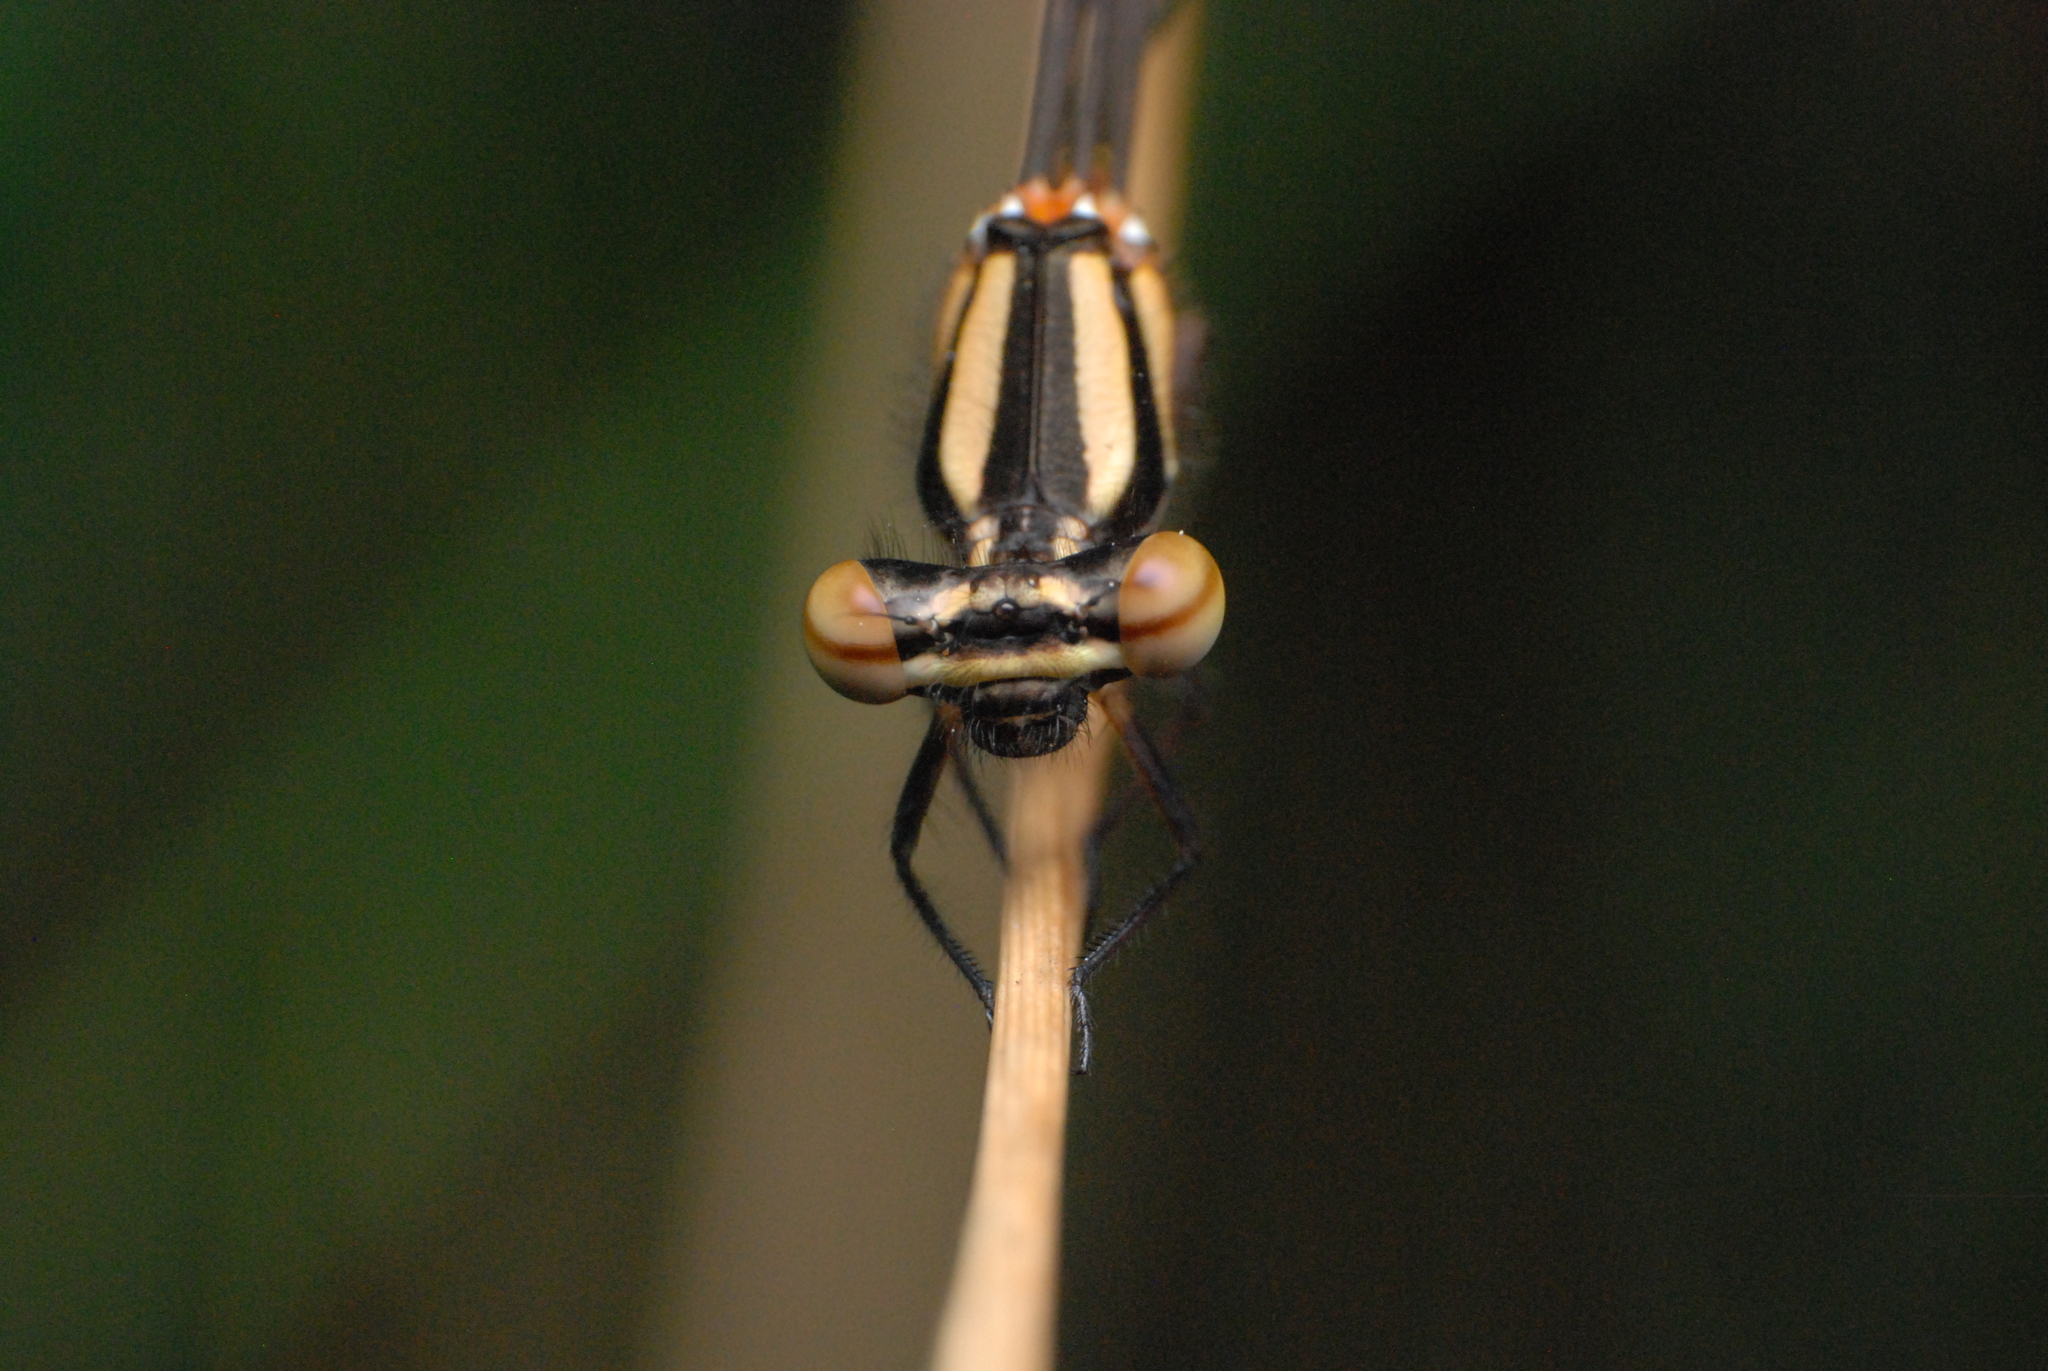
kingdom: Animalia
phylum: Arthropoda
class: Insecta
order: Odonata
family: Platycnemididae
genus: Nososticta
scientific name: Nososticta solida
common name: Orange threadtail
